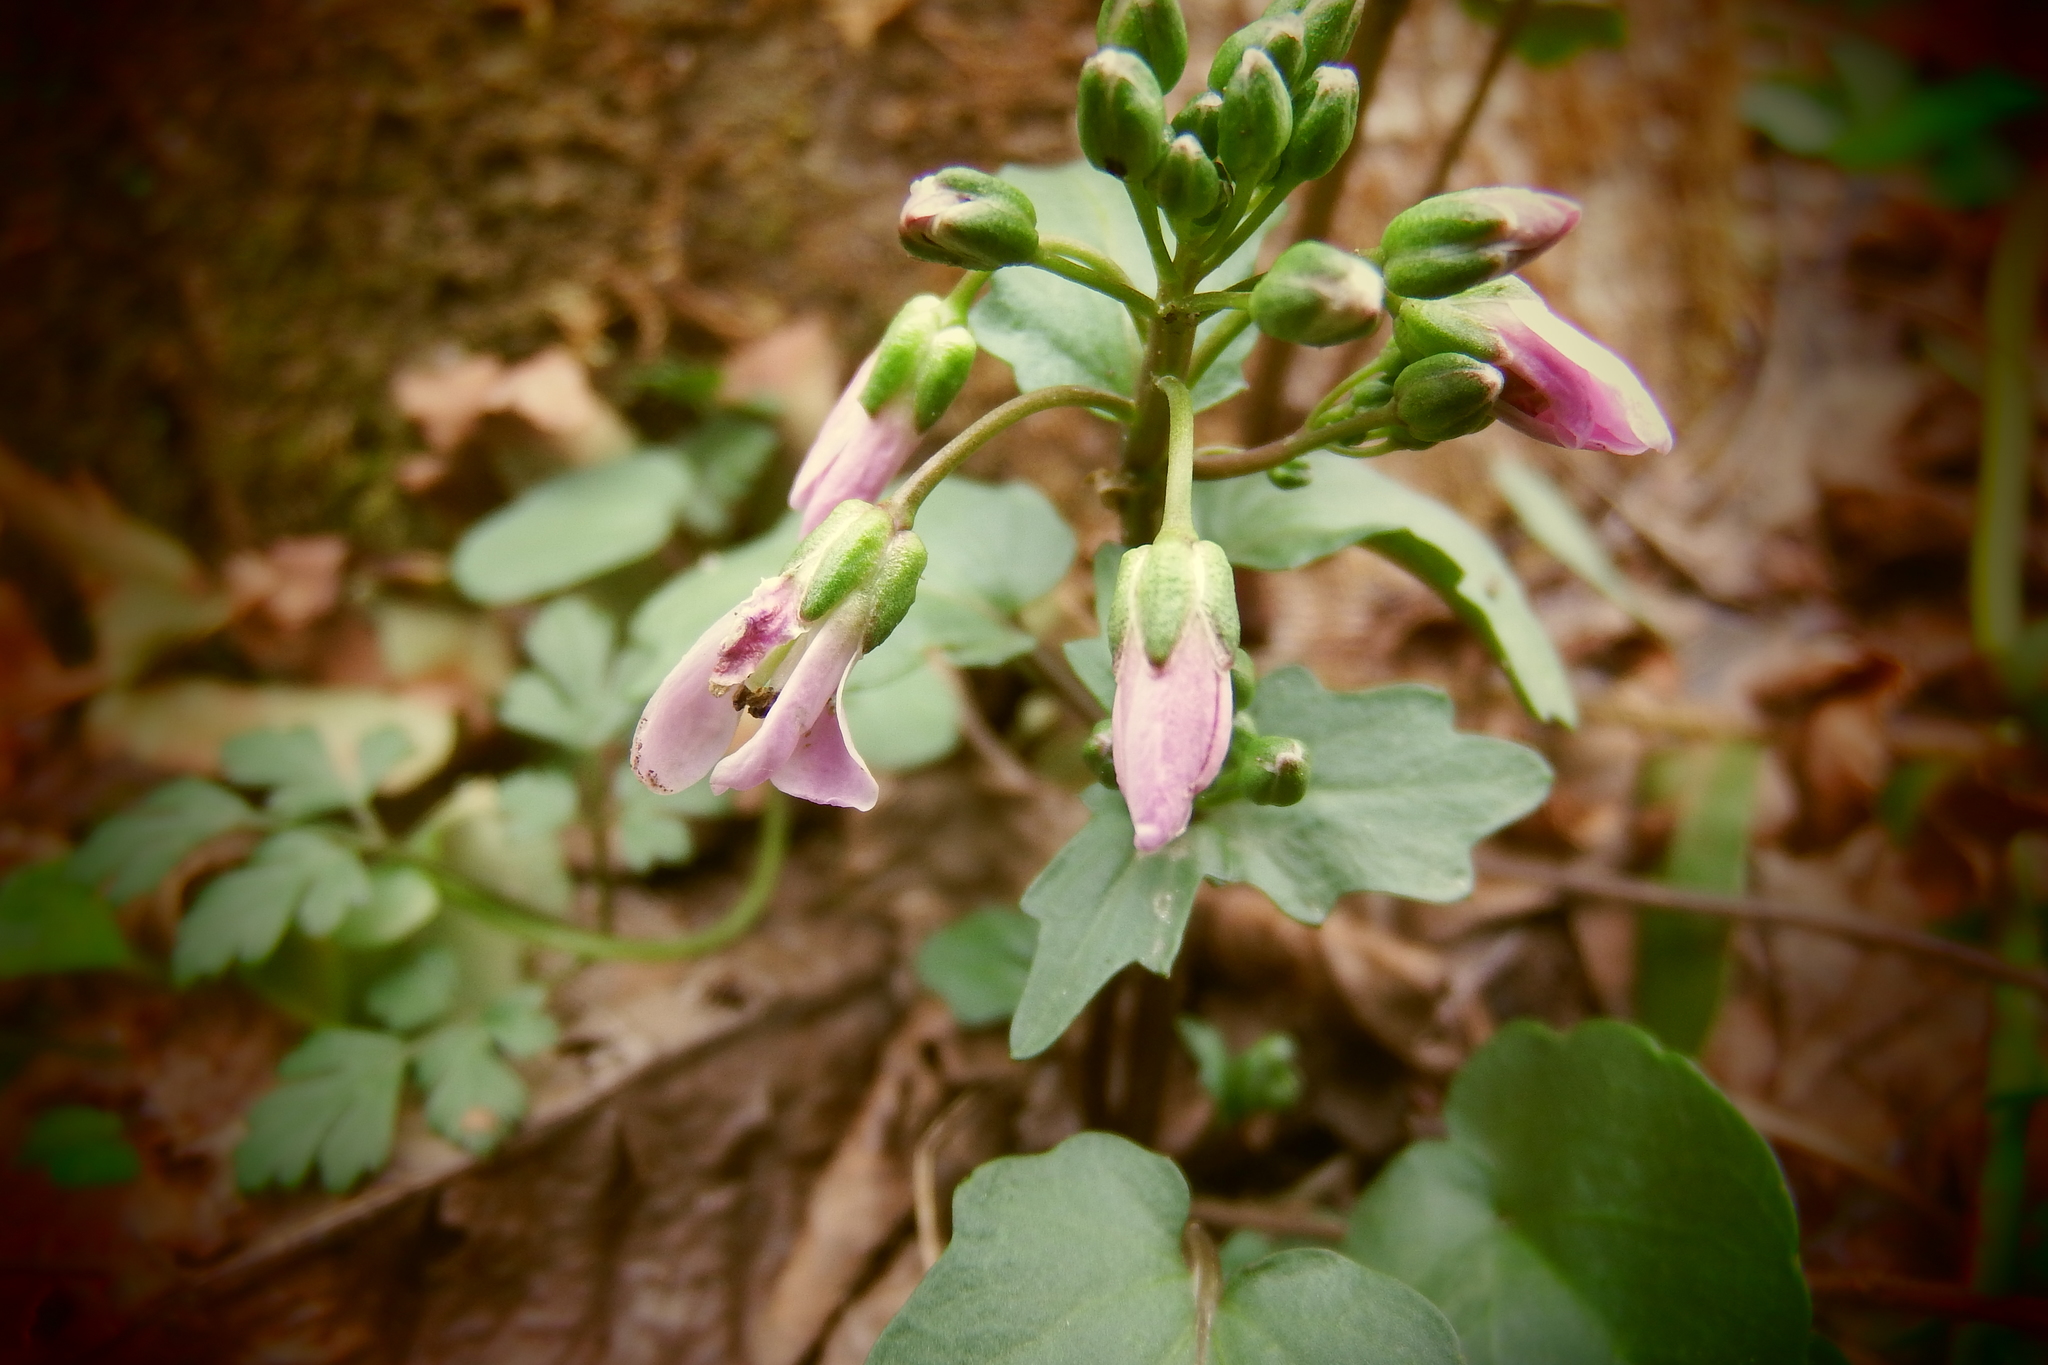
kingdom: Plantae
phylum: Tracheophyta
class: Magnoliopsida
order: Brassicales
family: Brassicaceae
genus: Cardamine
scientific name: Cardamine douglassii
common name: Purple cress
